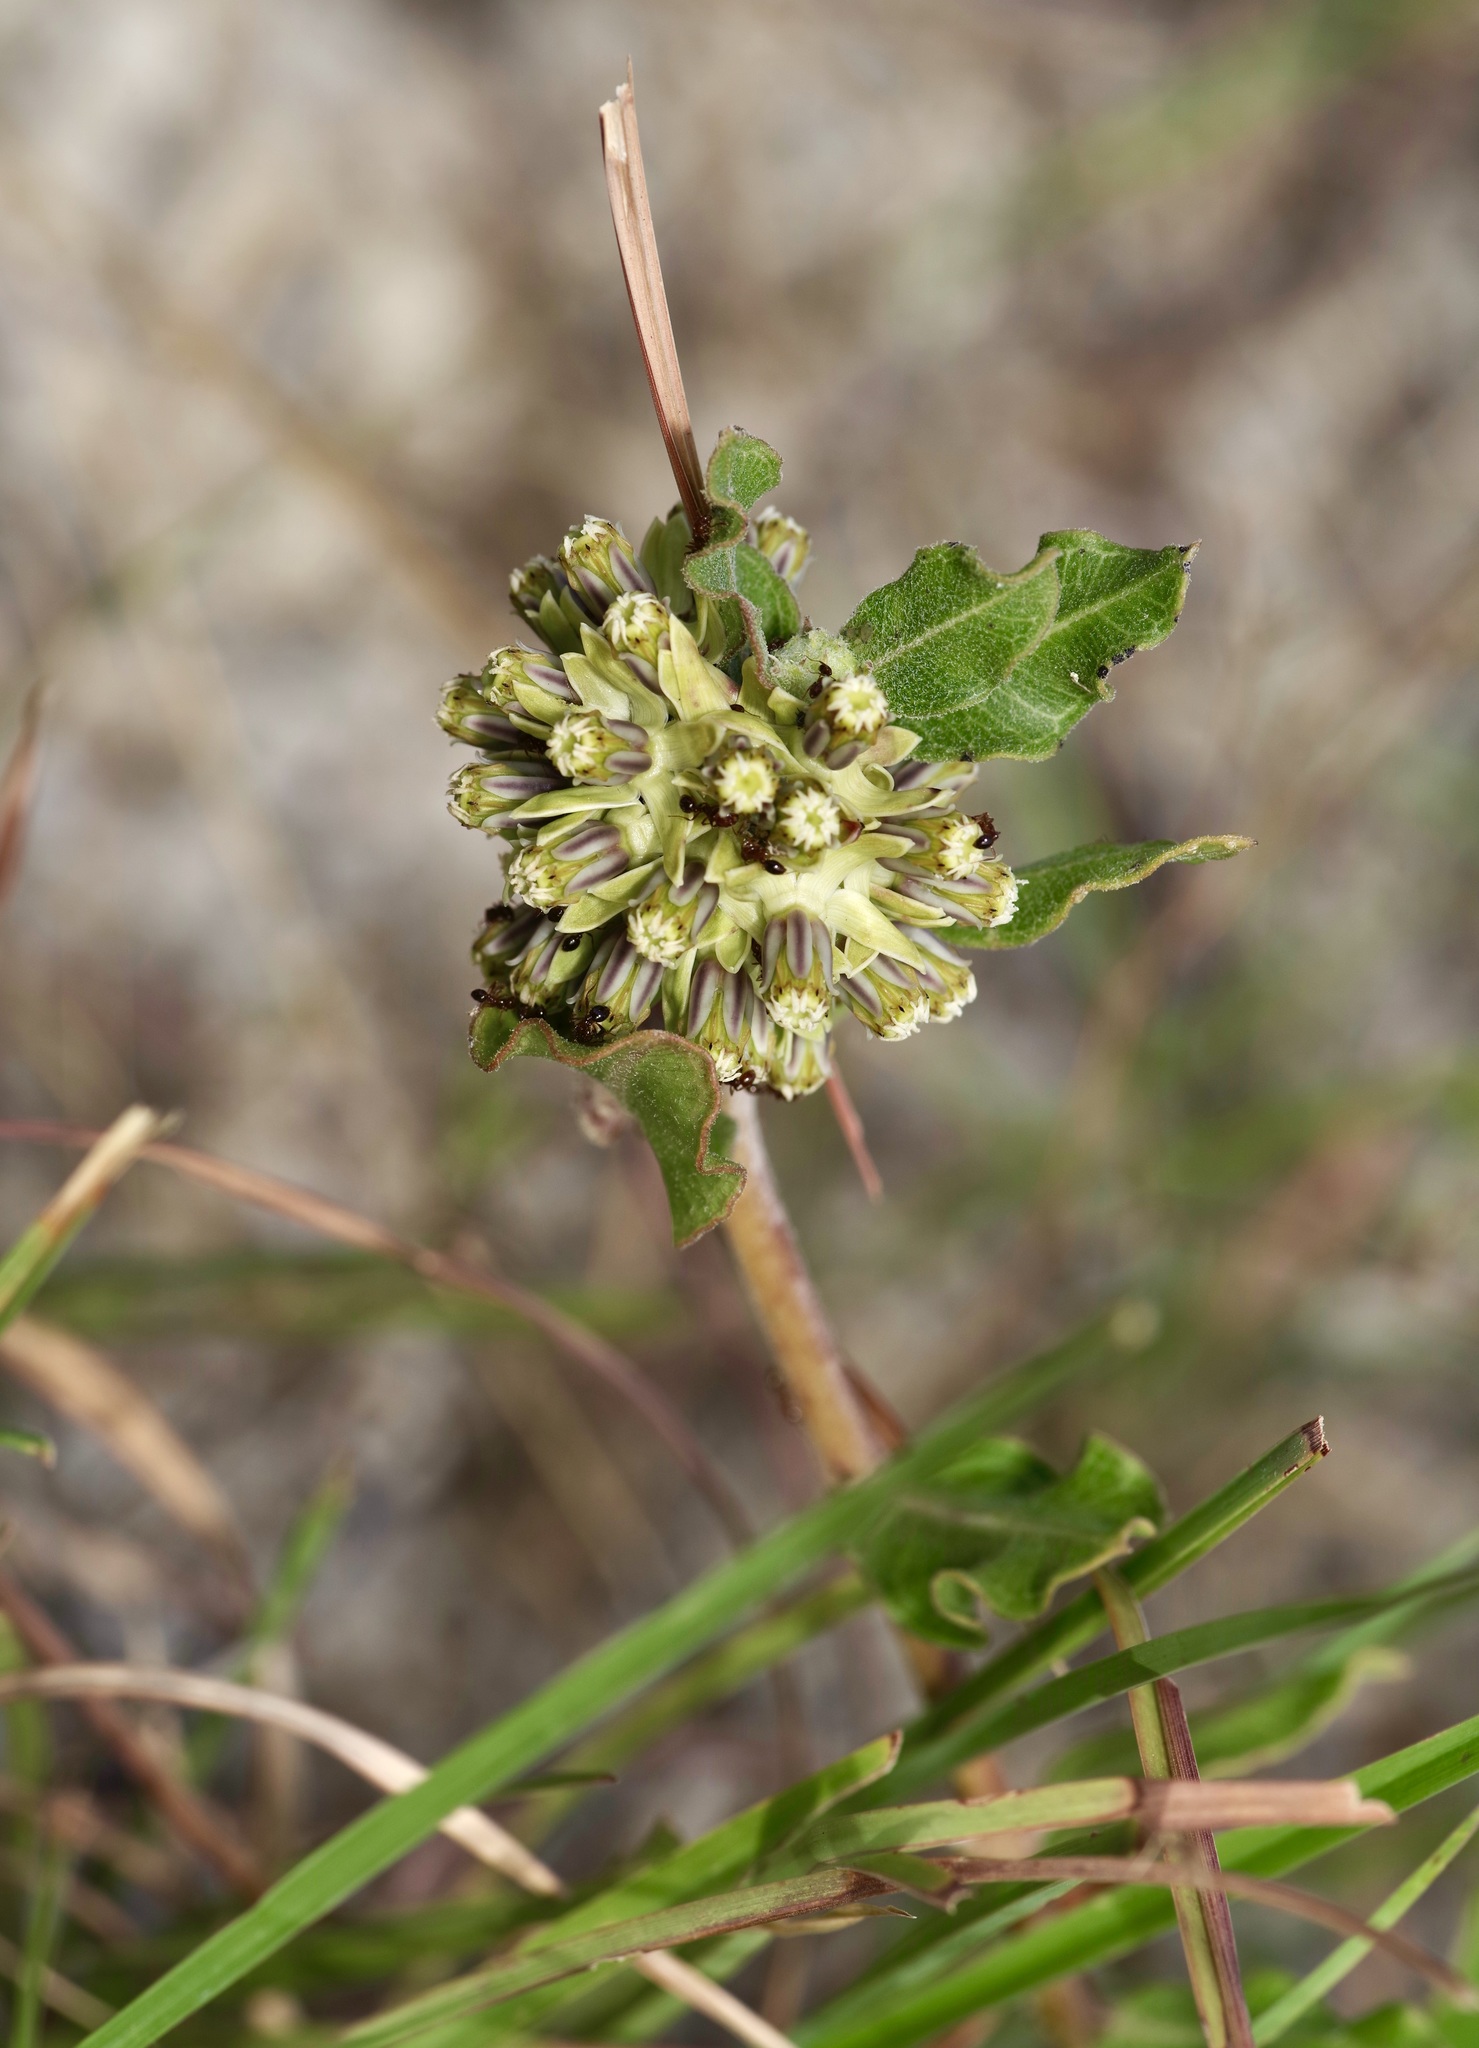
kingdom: Plantae
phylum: Tracheophyta
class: Magnoliopsida
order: Gentianales
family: Apocynaceae
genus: Asclepias
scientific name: Asclepias viridiflora
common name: Green comet milkweed
